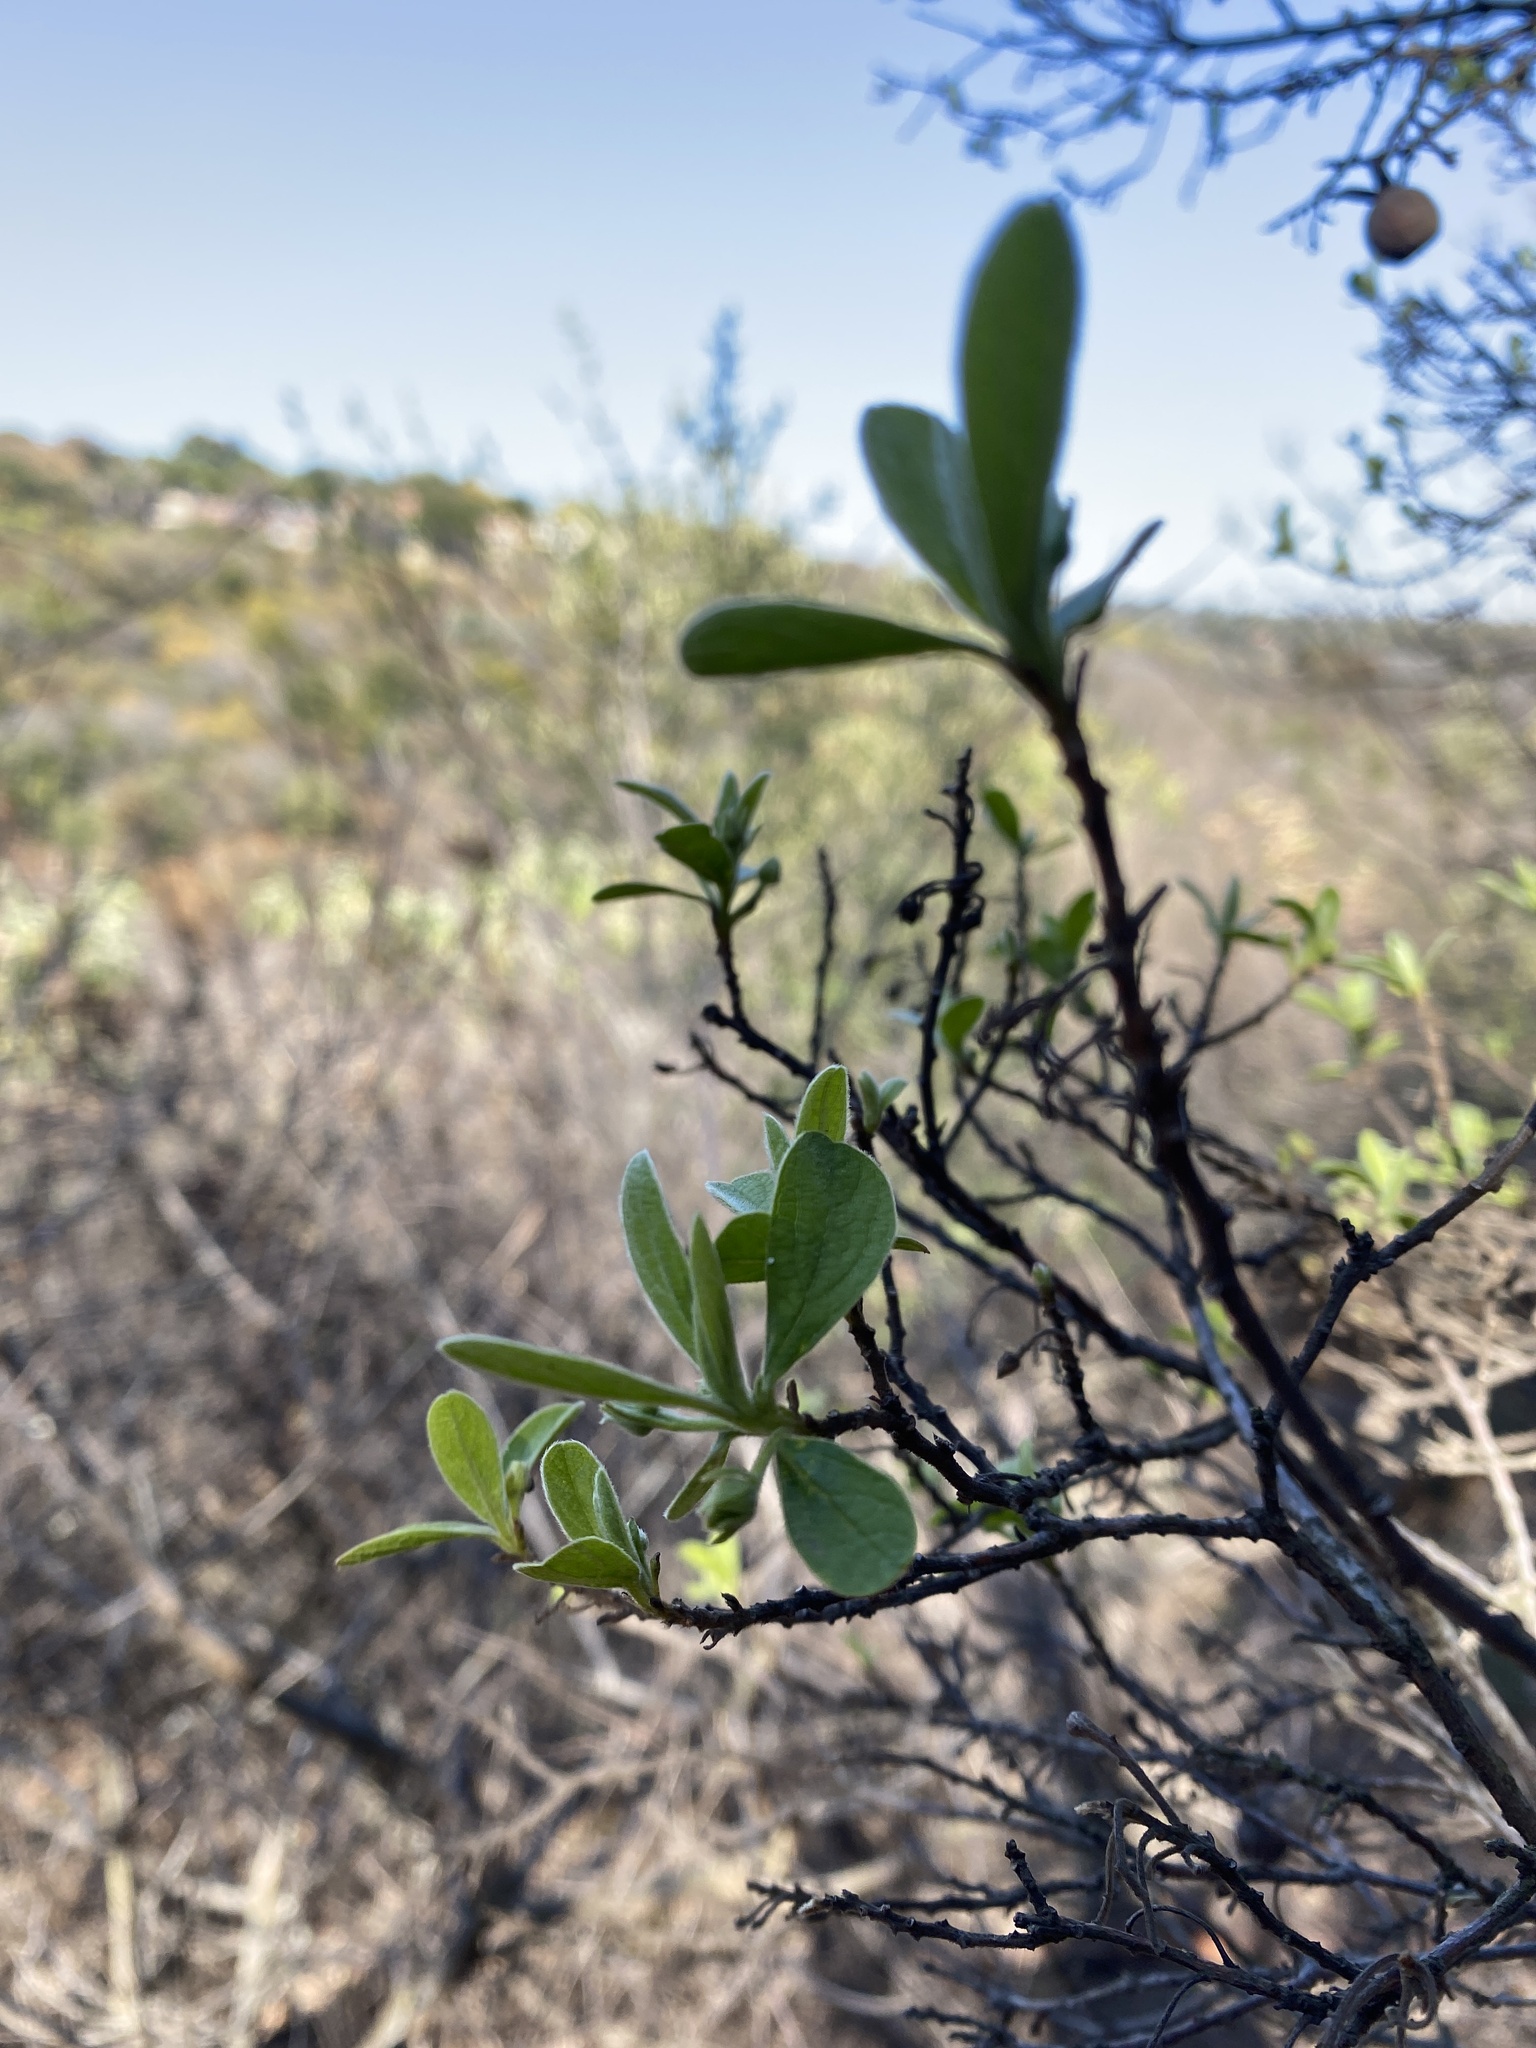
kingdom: Plantae
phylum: Tracheophyta
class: Magnoliopsida
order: Ericales
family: Ebenaceae
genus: Diospyros
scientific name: Diospyros lycioides
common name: Red star apple
